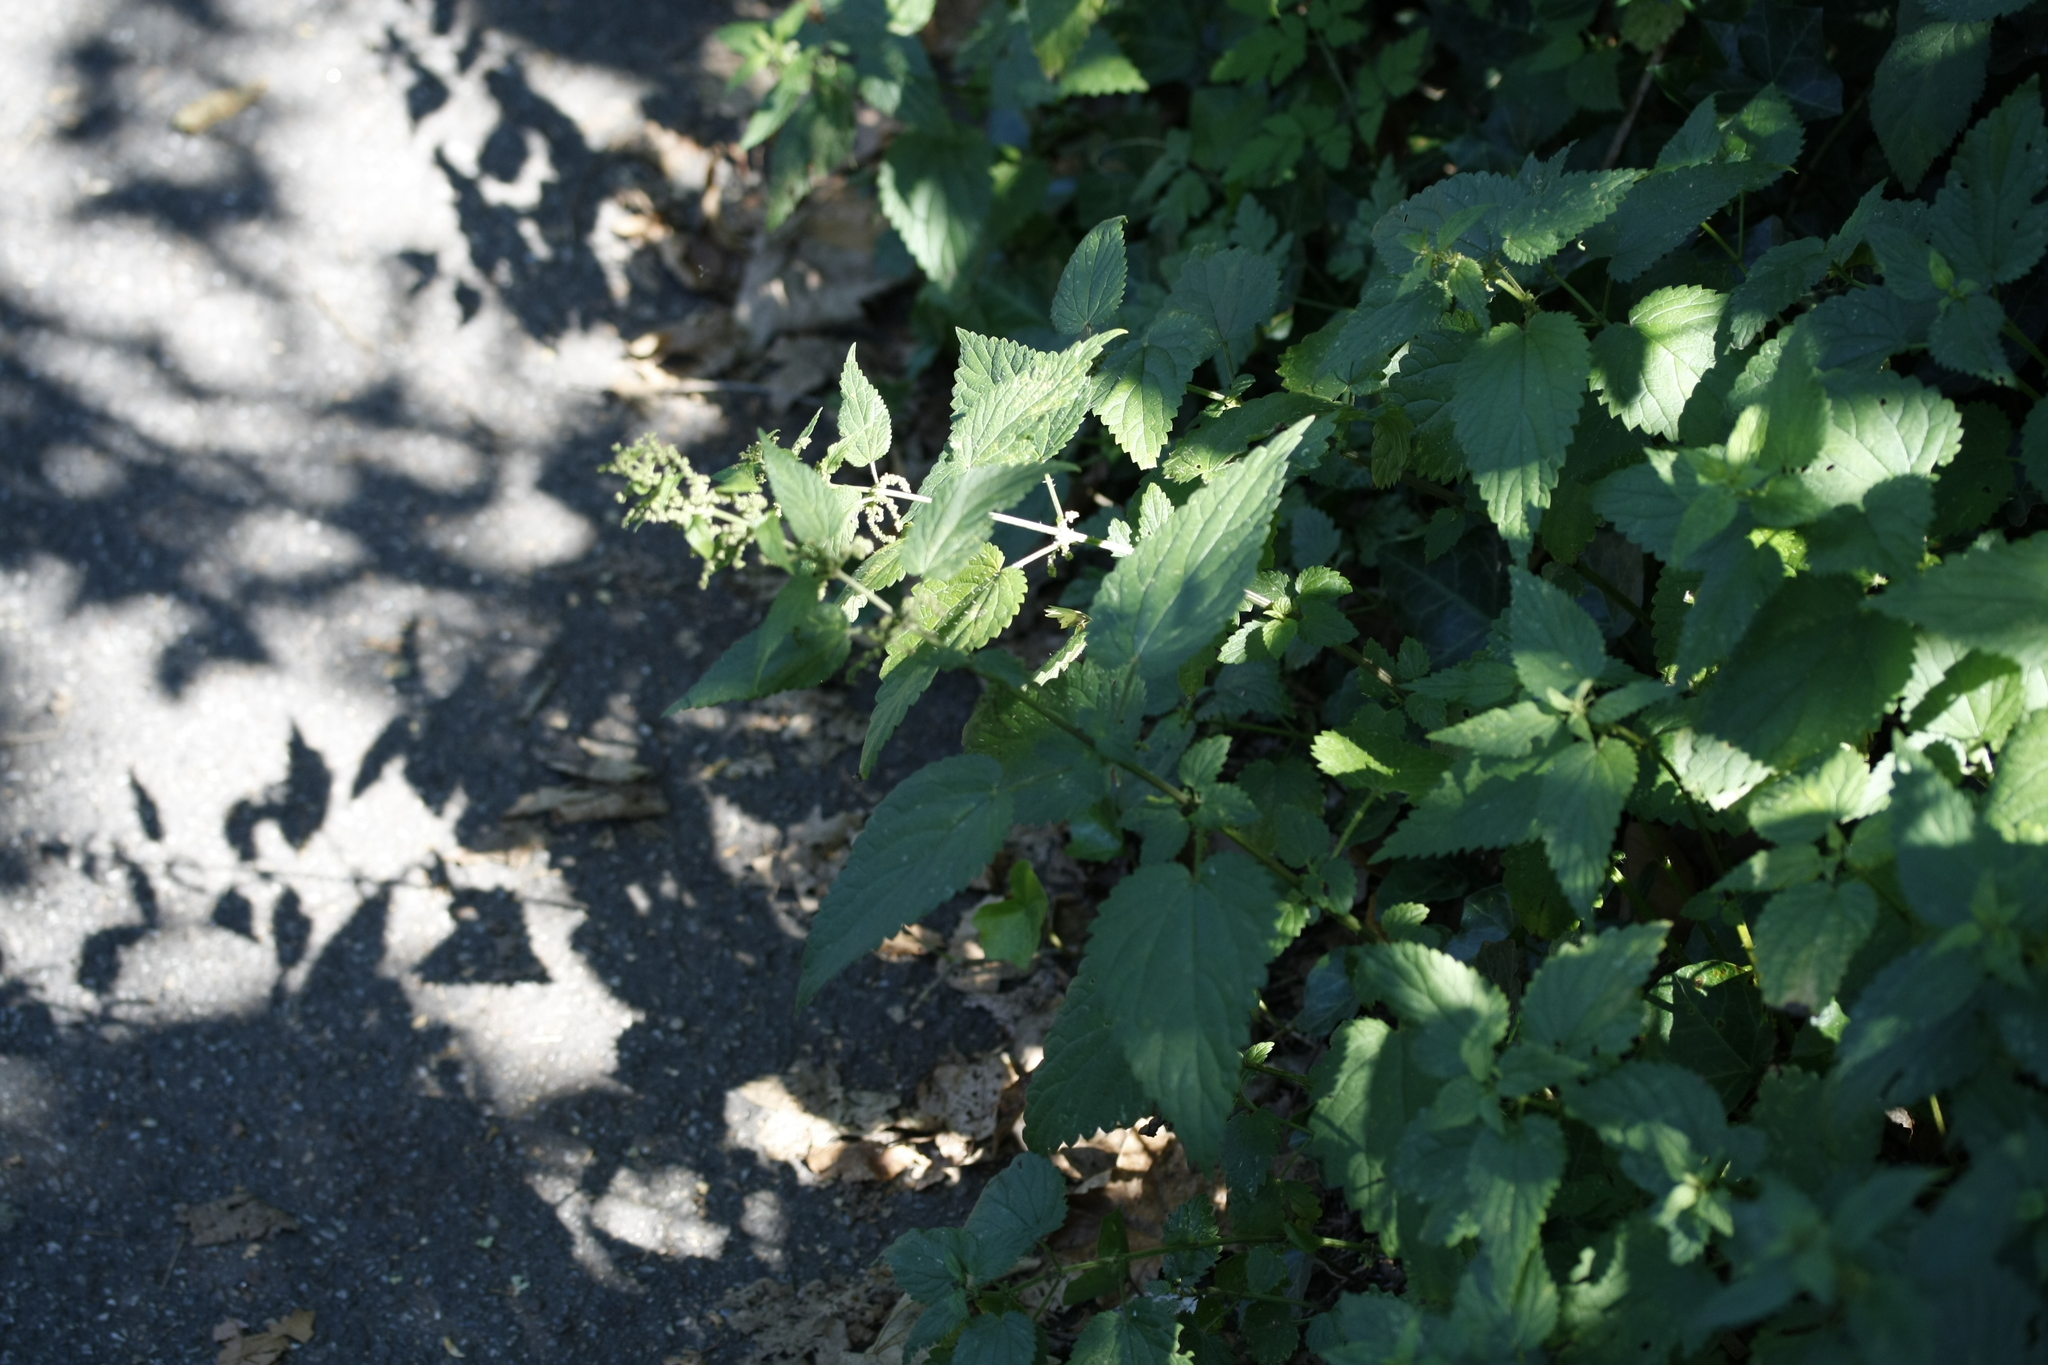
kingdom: Plantae
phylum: Tracheophyta
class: Magnoliopsida
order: Rosales
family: Urticaceae
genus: Urtica
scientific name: Urtica dioica
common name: Common nettle
